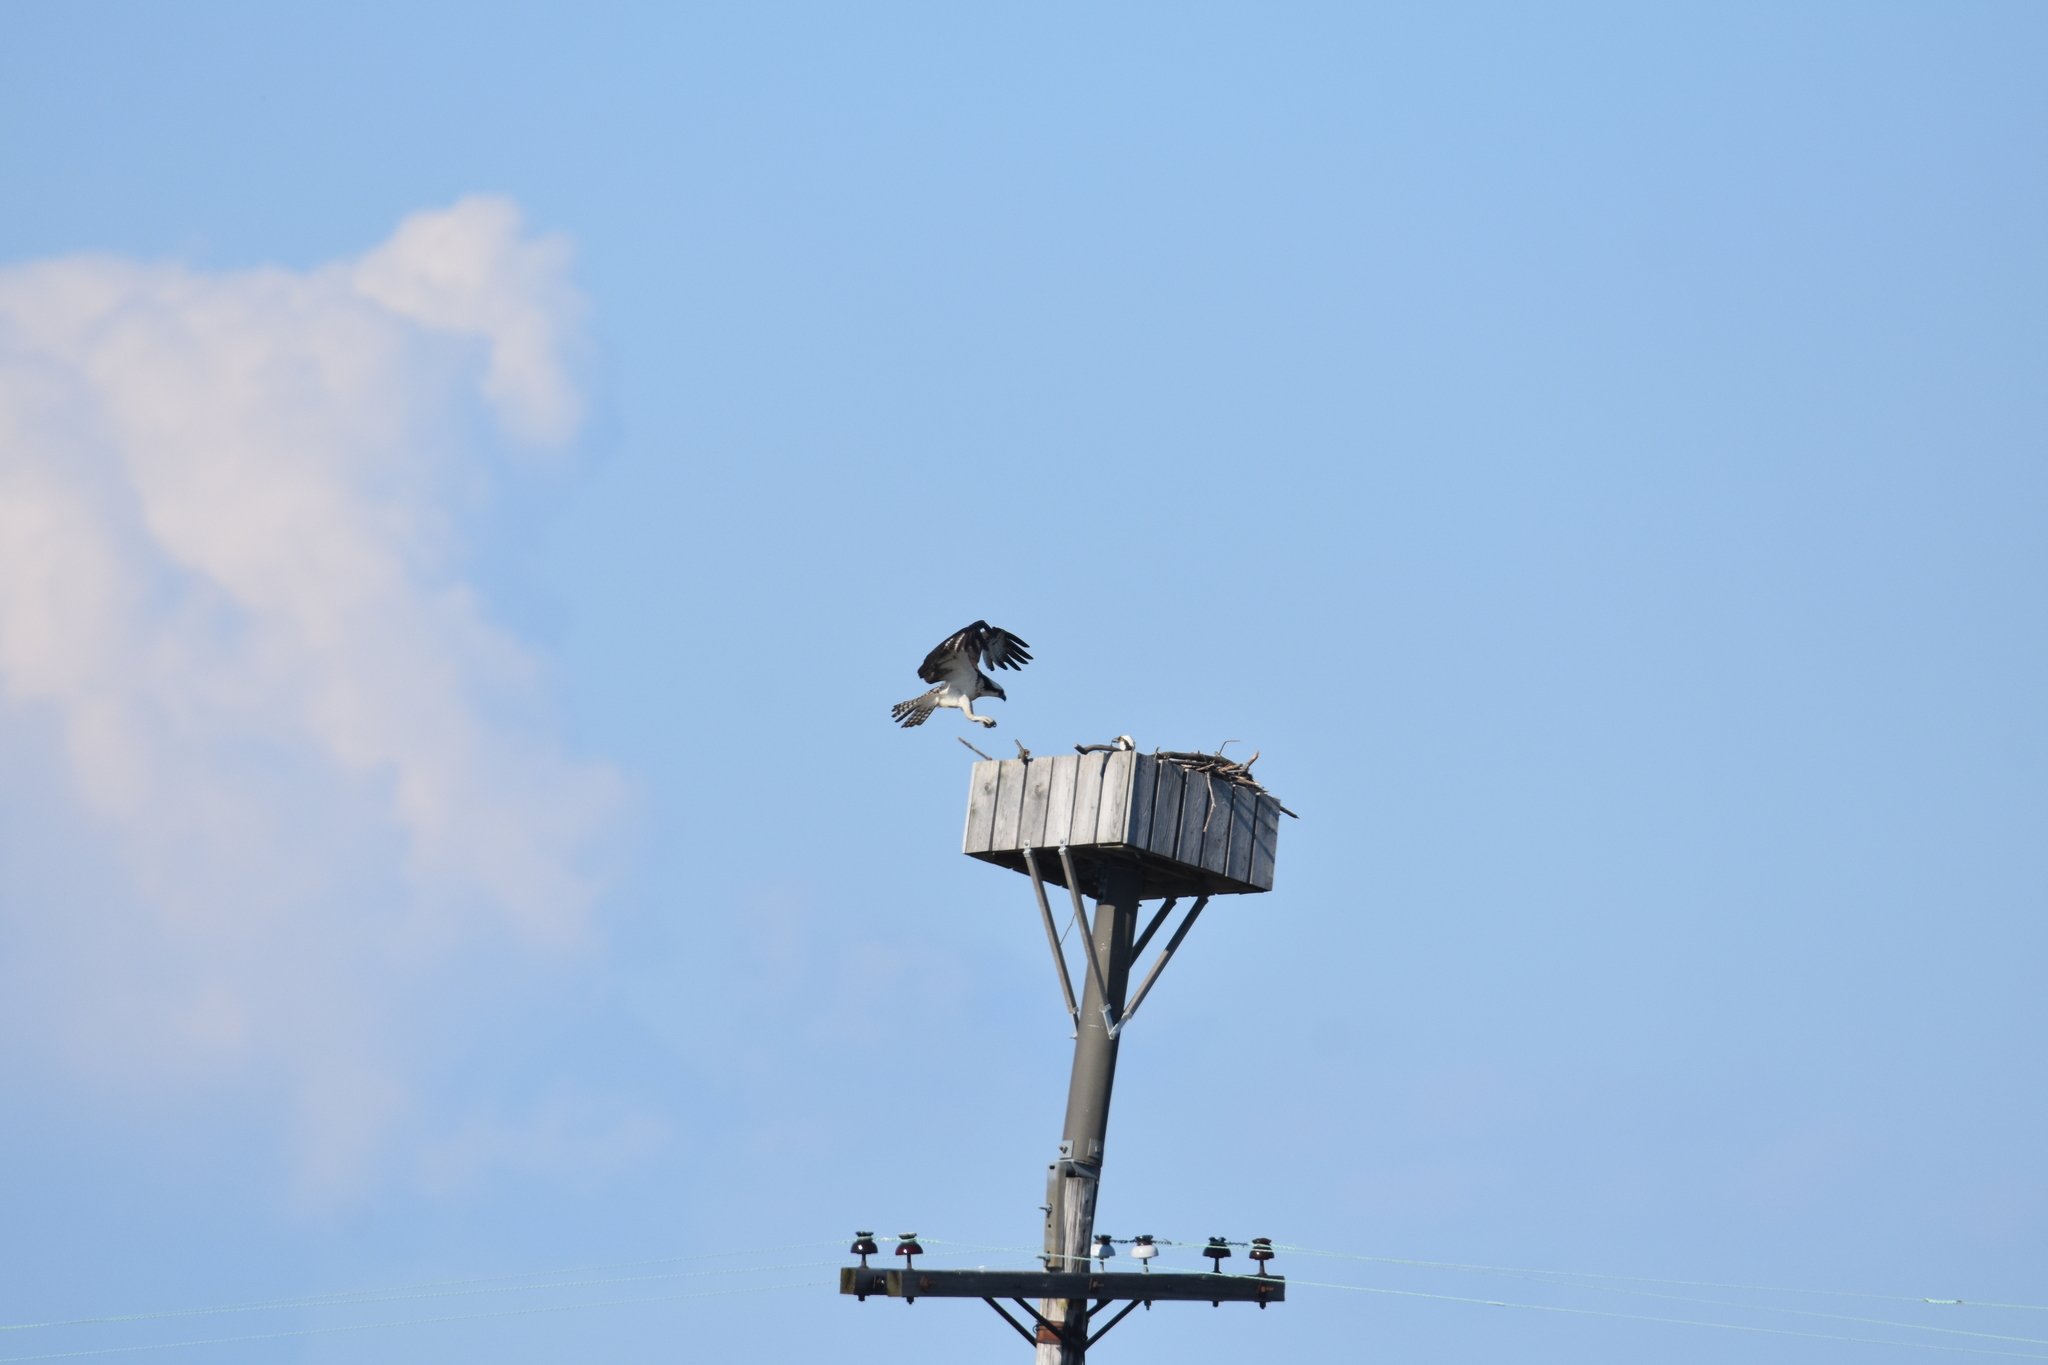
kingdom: Animalia
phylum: Chordata
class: Aves
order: Accipitriformes
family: Pandionidae
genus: Pandion
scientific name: Pandion haliaetus
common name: Osprey
